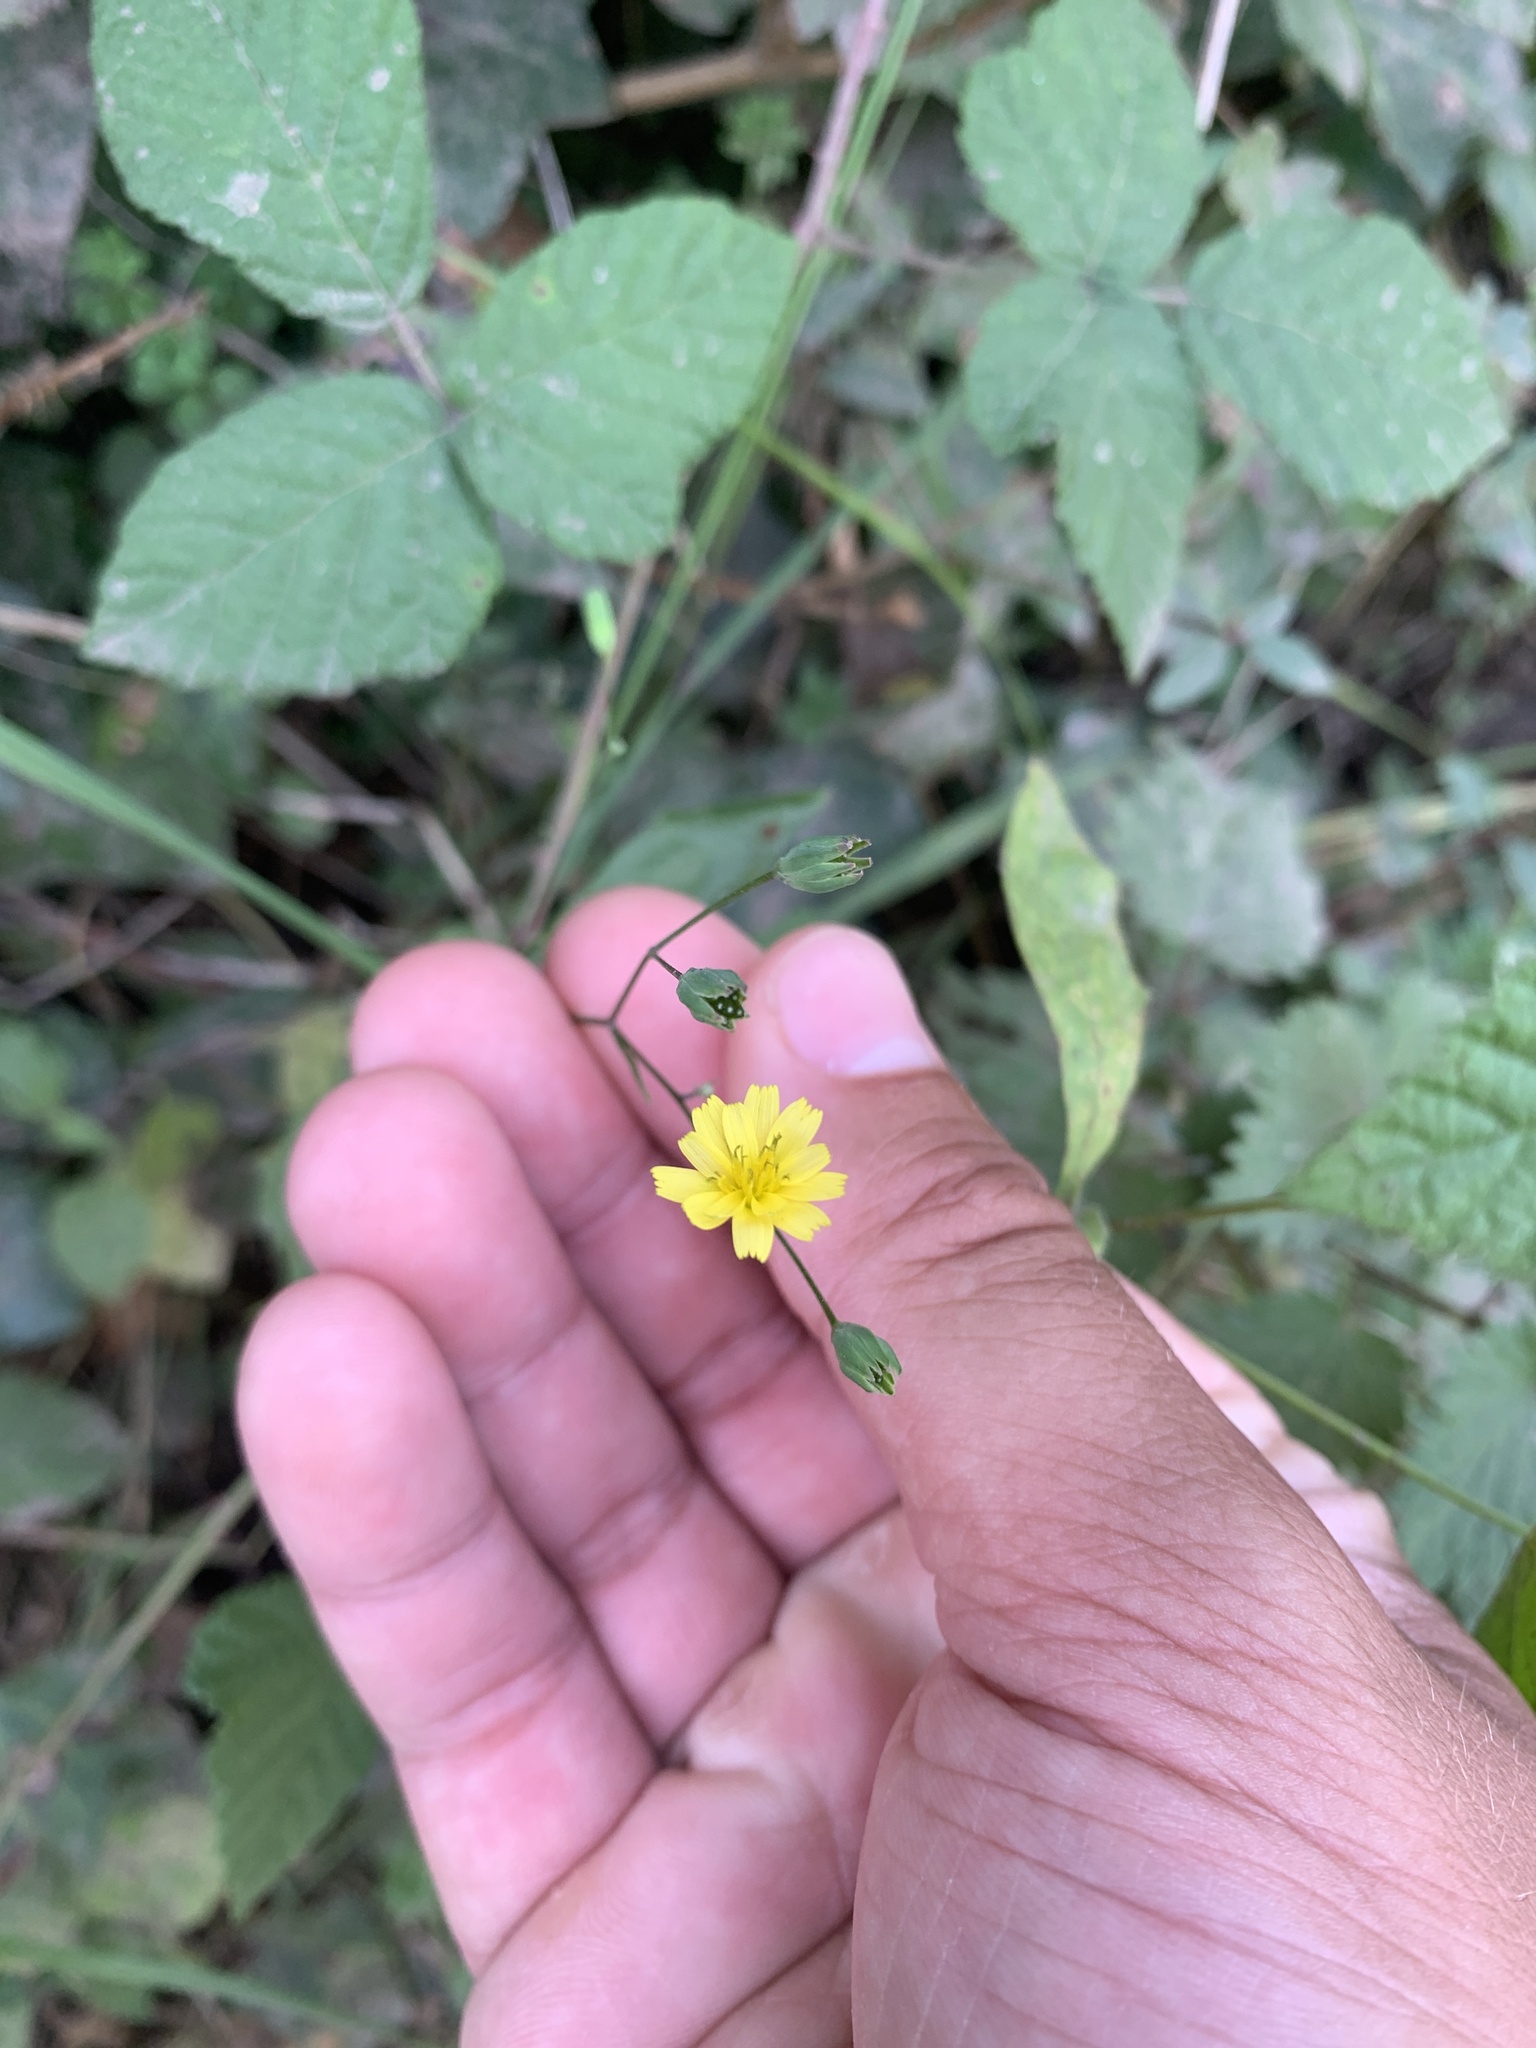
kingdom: Plantae
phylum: Tracheophyta
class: Magnoliopsida
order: Asterales
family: Asteraceae
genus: Lapsana
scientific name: Lapsana communis
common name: Nipplewort
